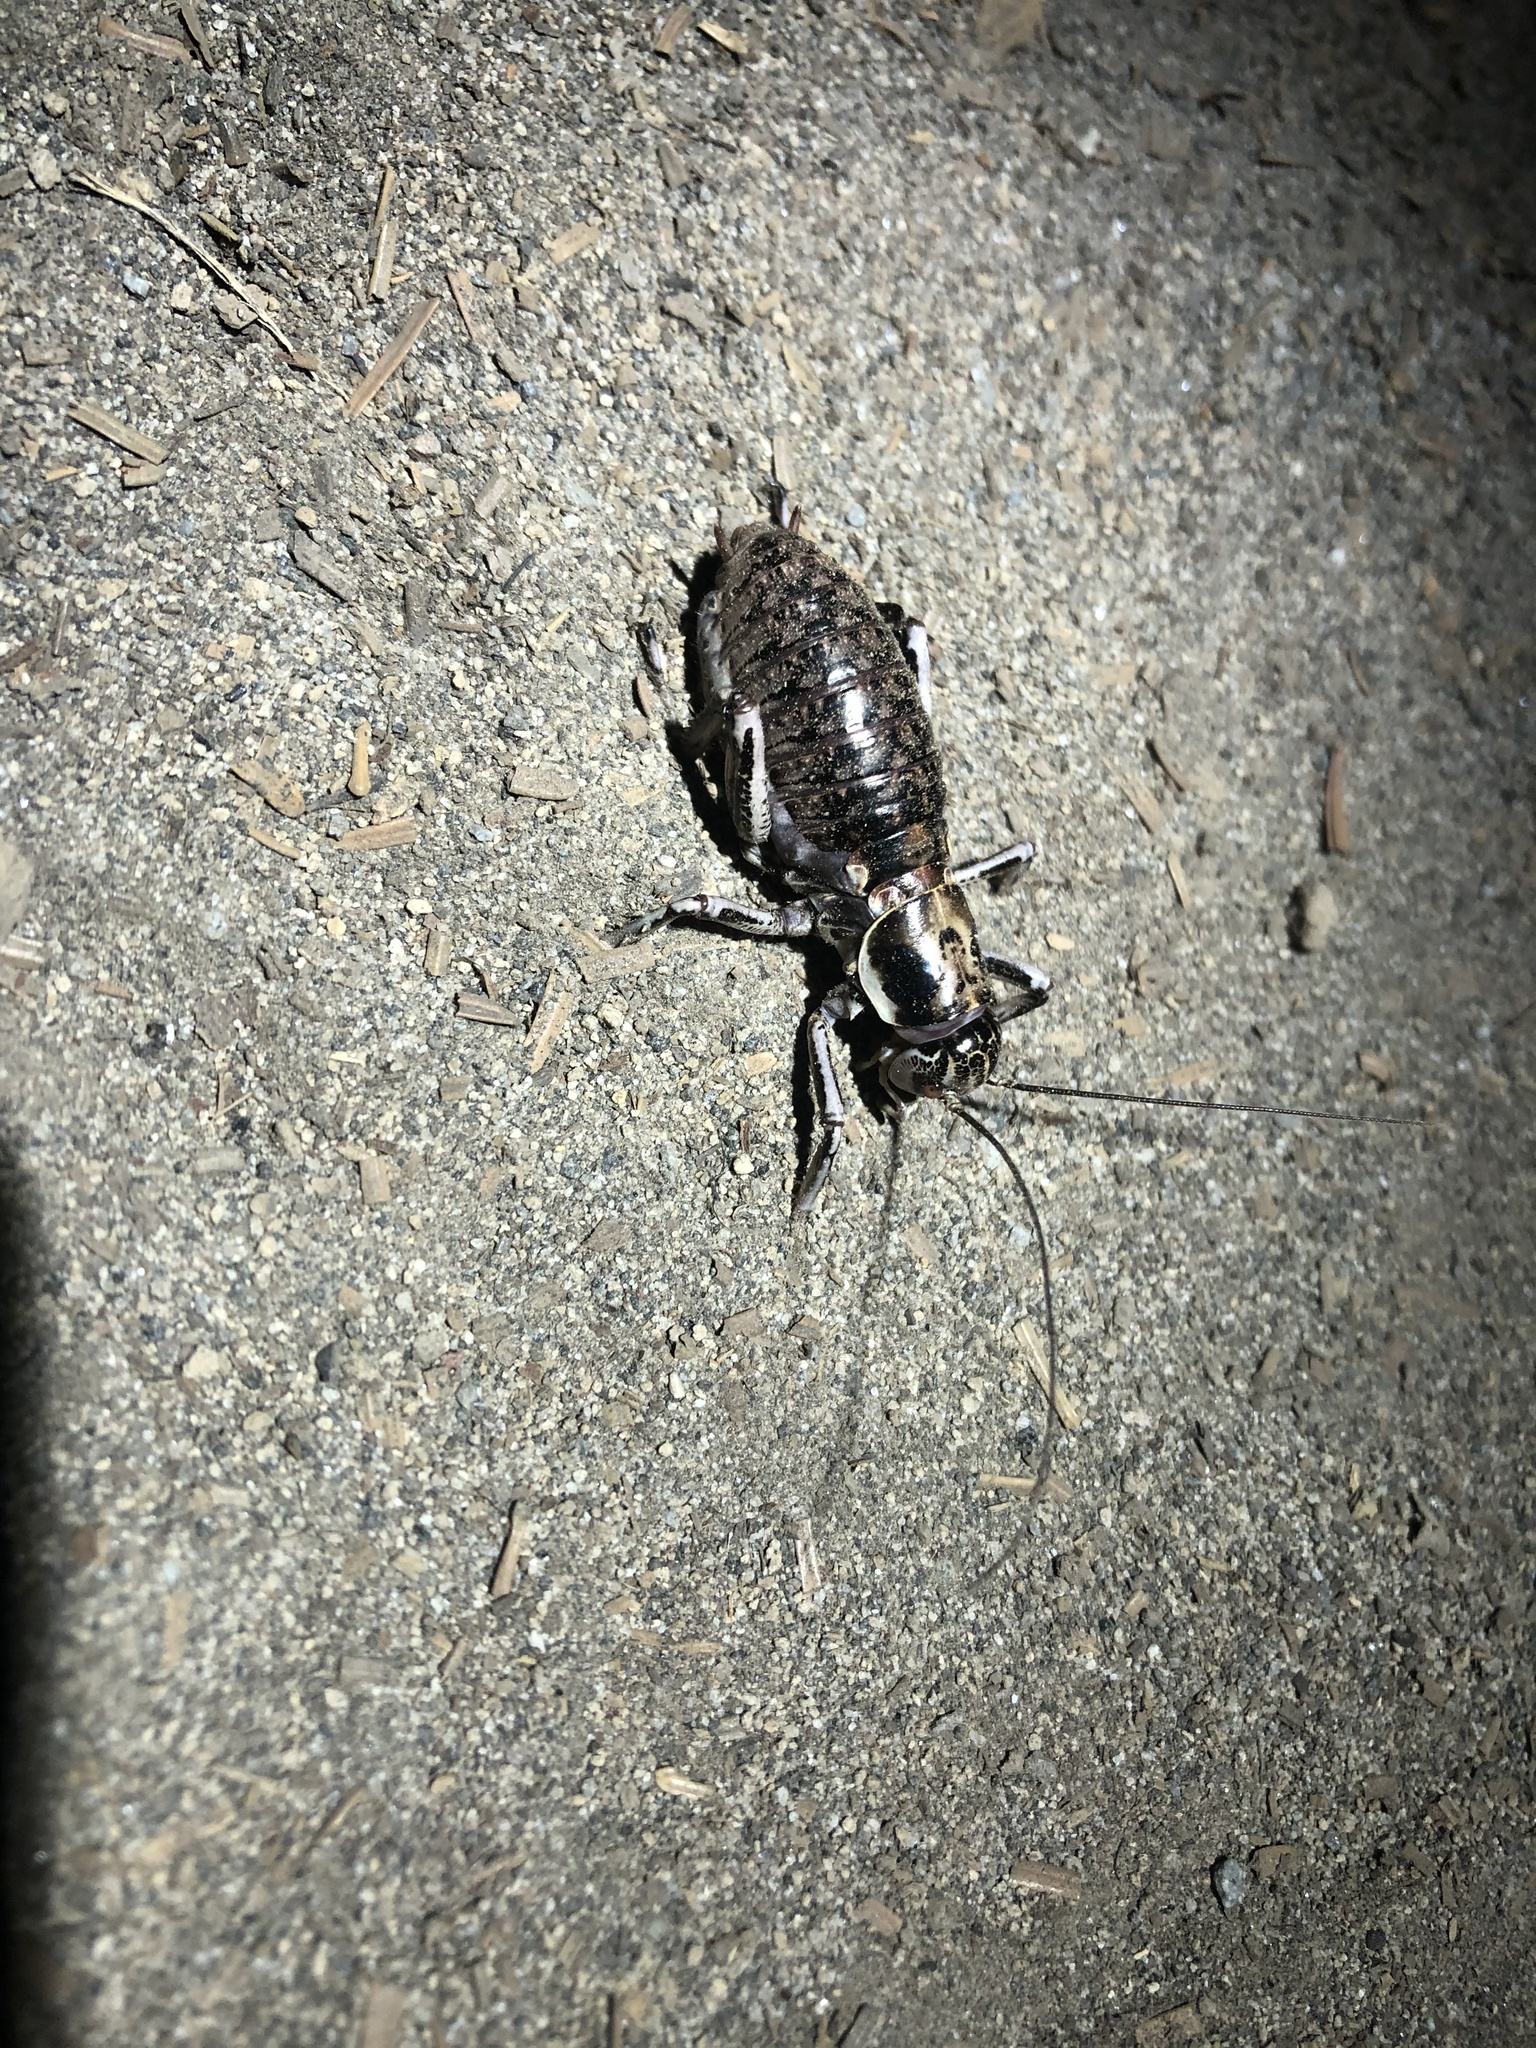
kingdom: Animalia
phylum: Arthropoda
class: Insecta
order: Orthoptera
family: Prophalangopsidae
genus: Cyphoderris
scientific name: Cyphoderris monstrosa
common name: Great grig
